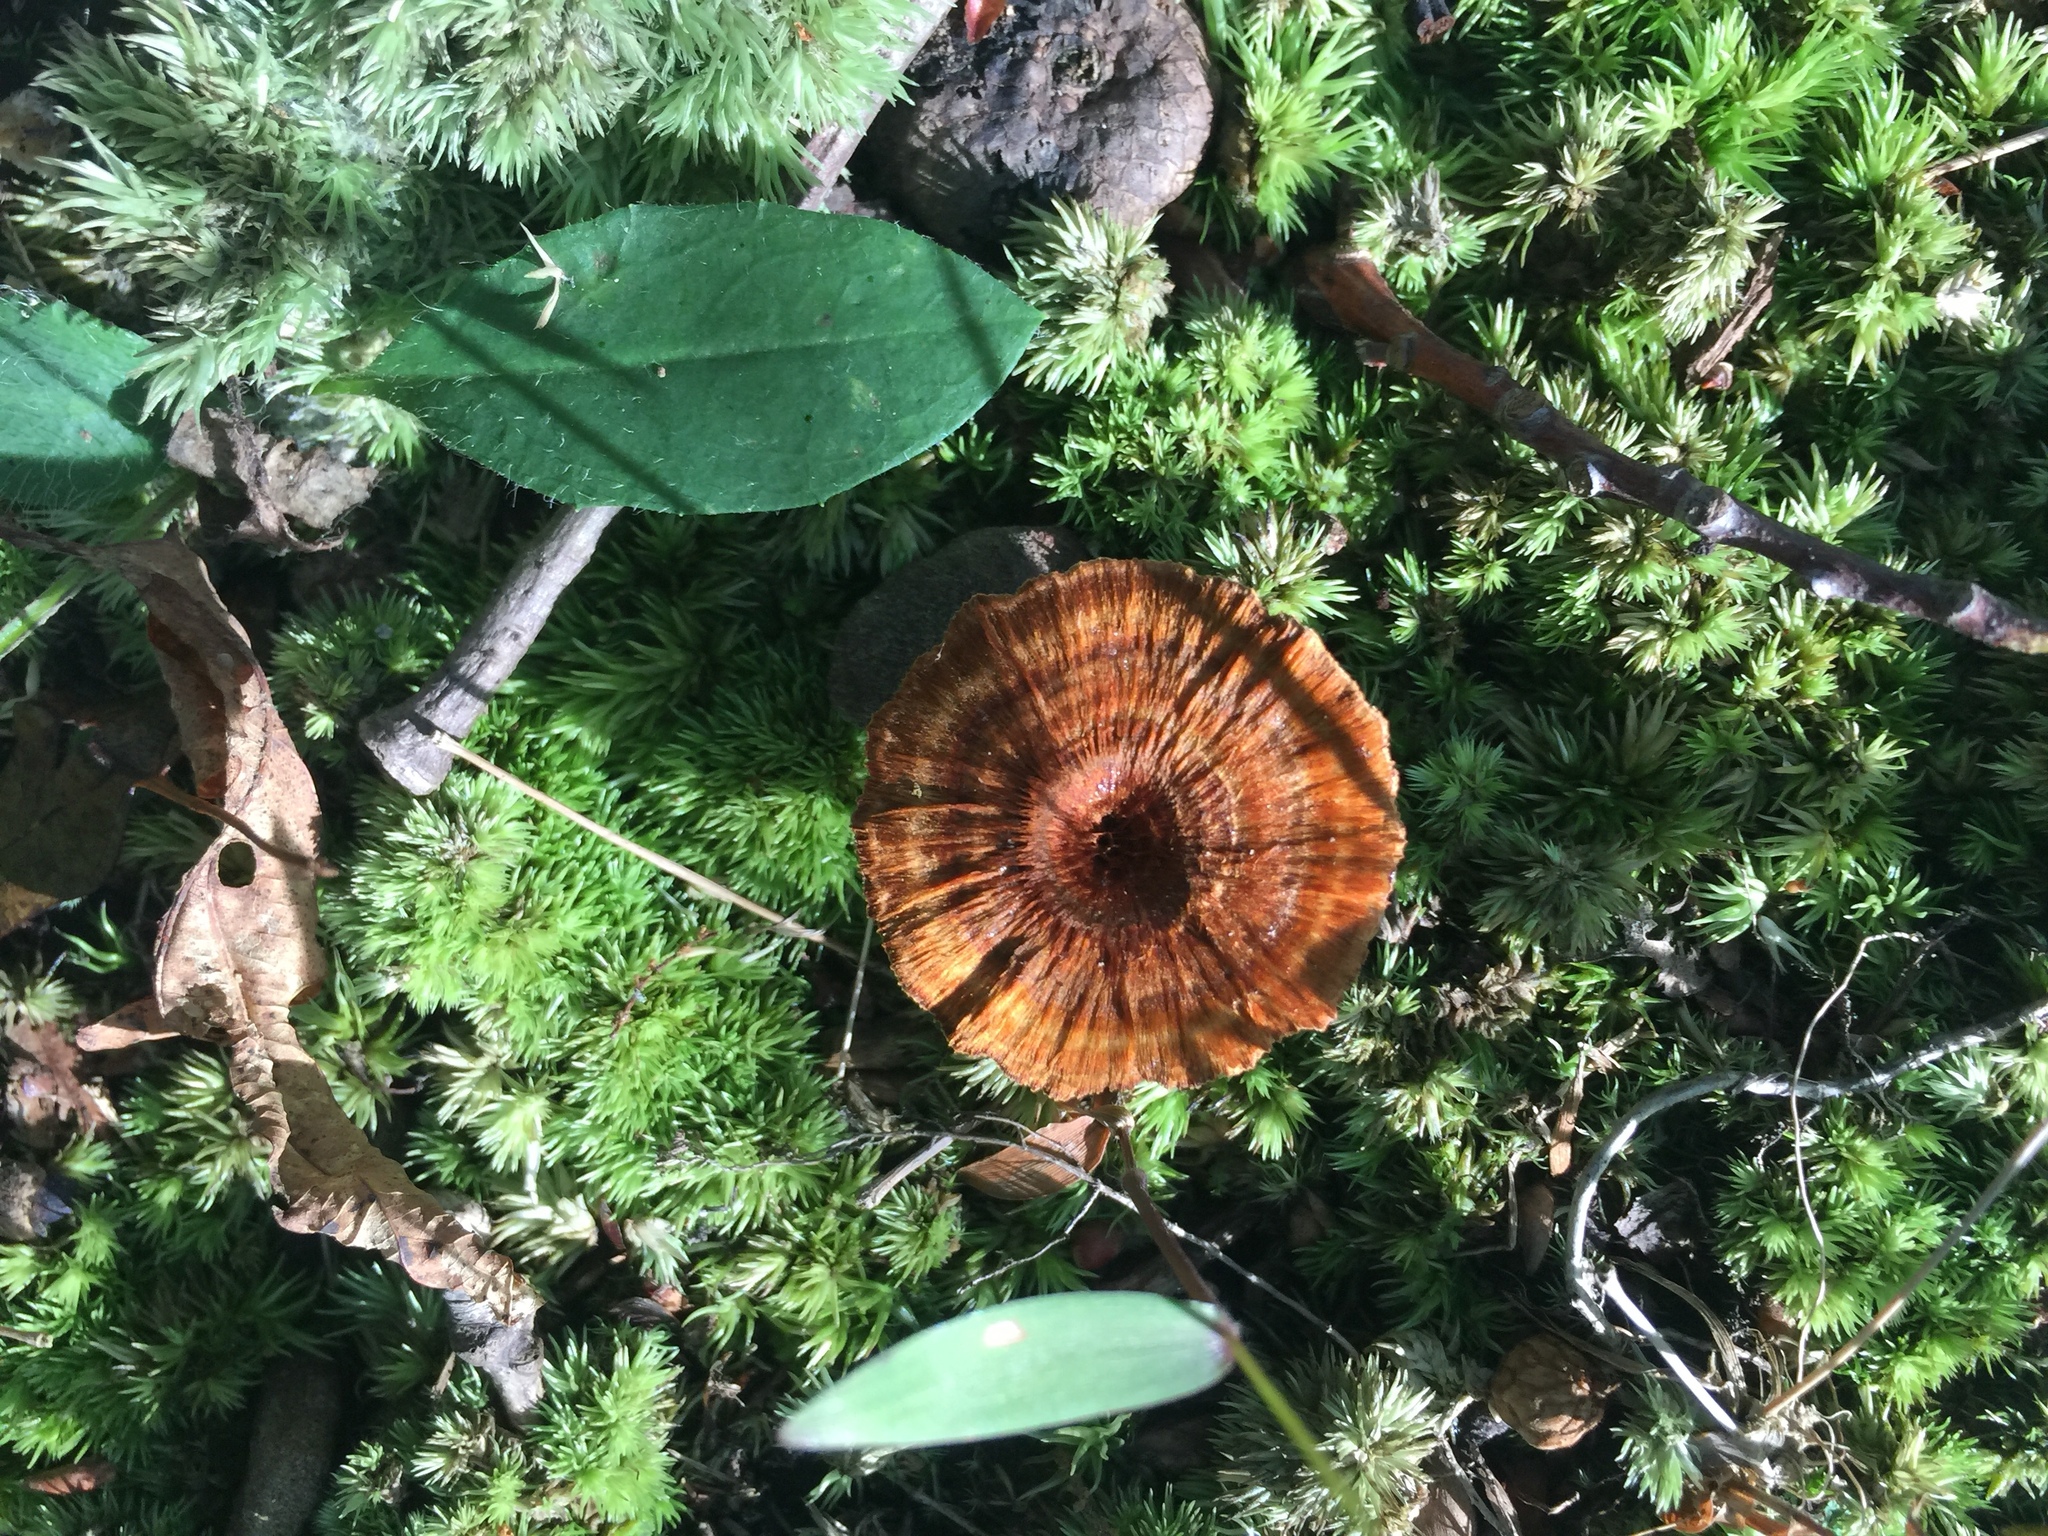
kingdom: Fungi
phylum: Basidiomycota
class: Agaricomycetes
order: Hymenochaetales
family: Hymenochaetaceae
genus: Coltricia
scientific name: Coltricia cinnamomea
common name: Shiny cinnamon polypore
